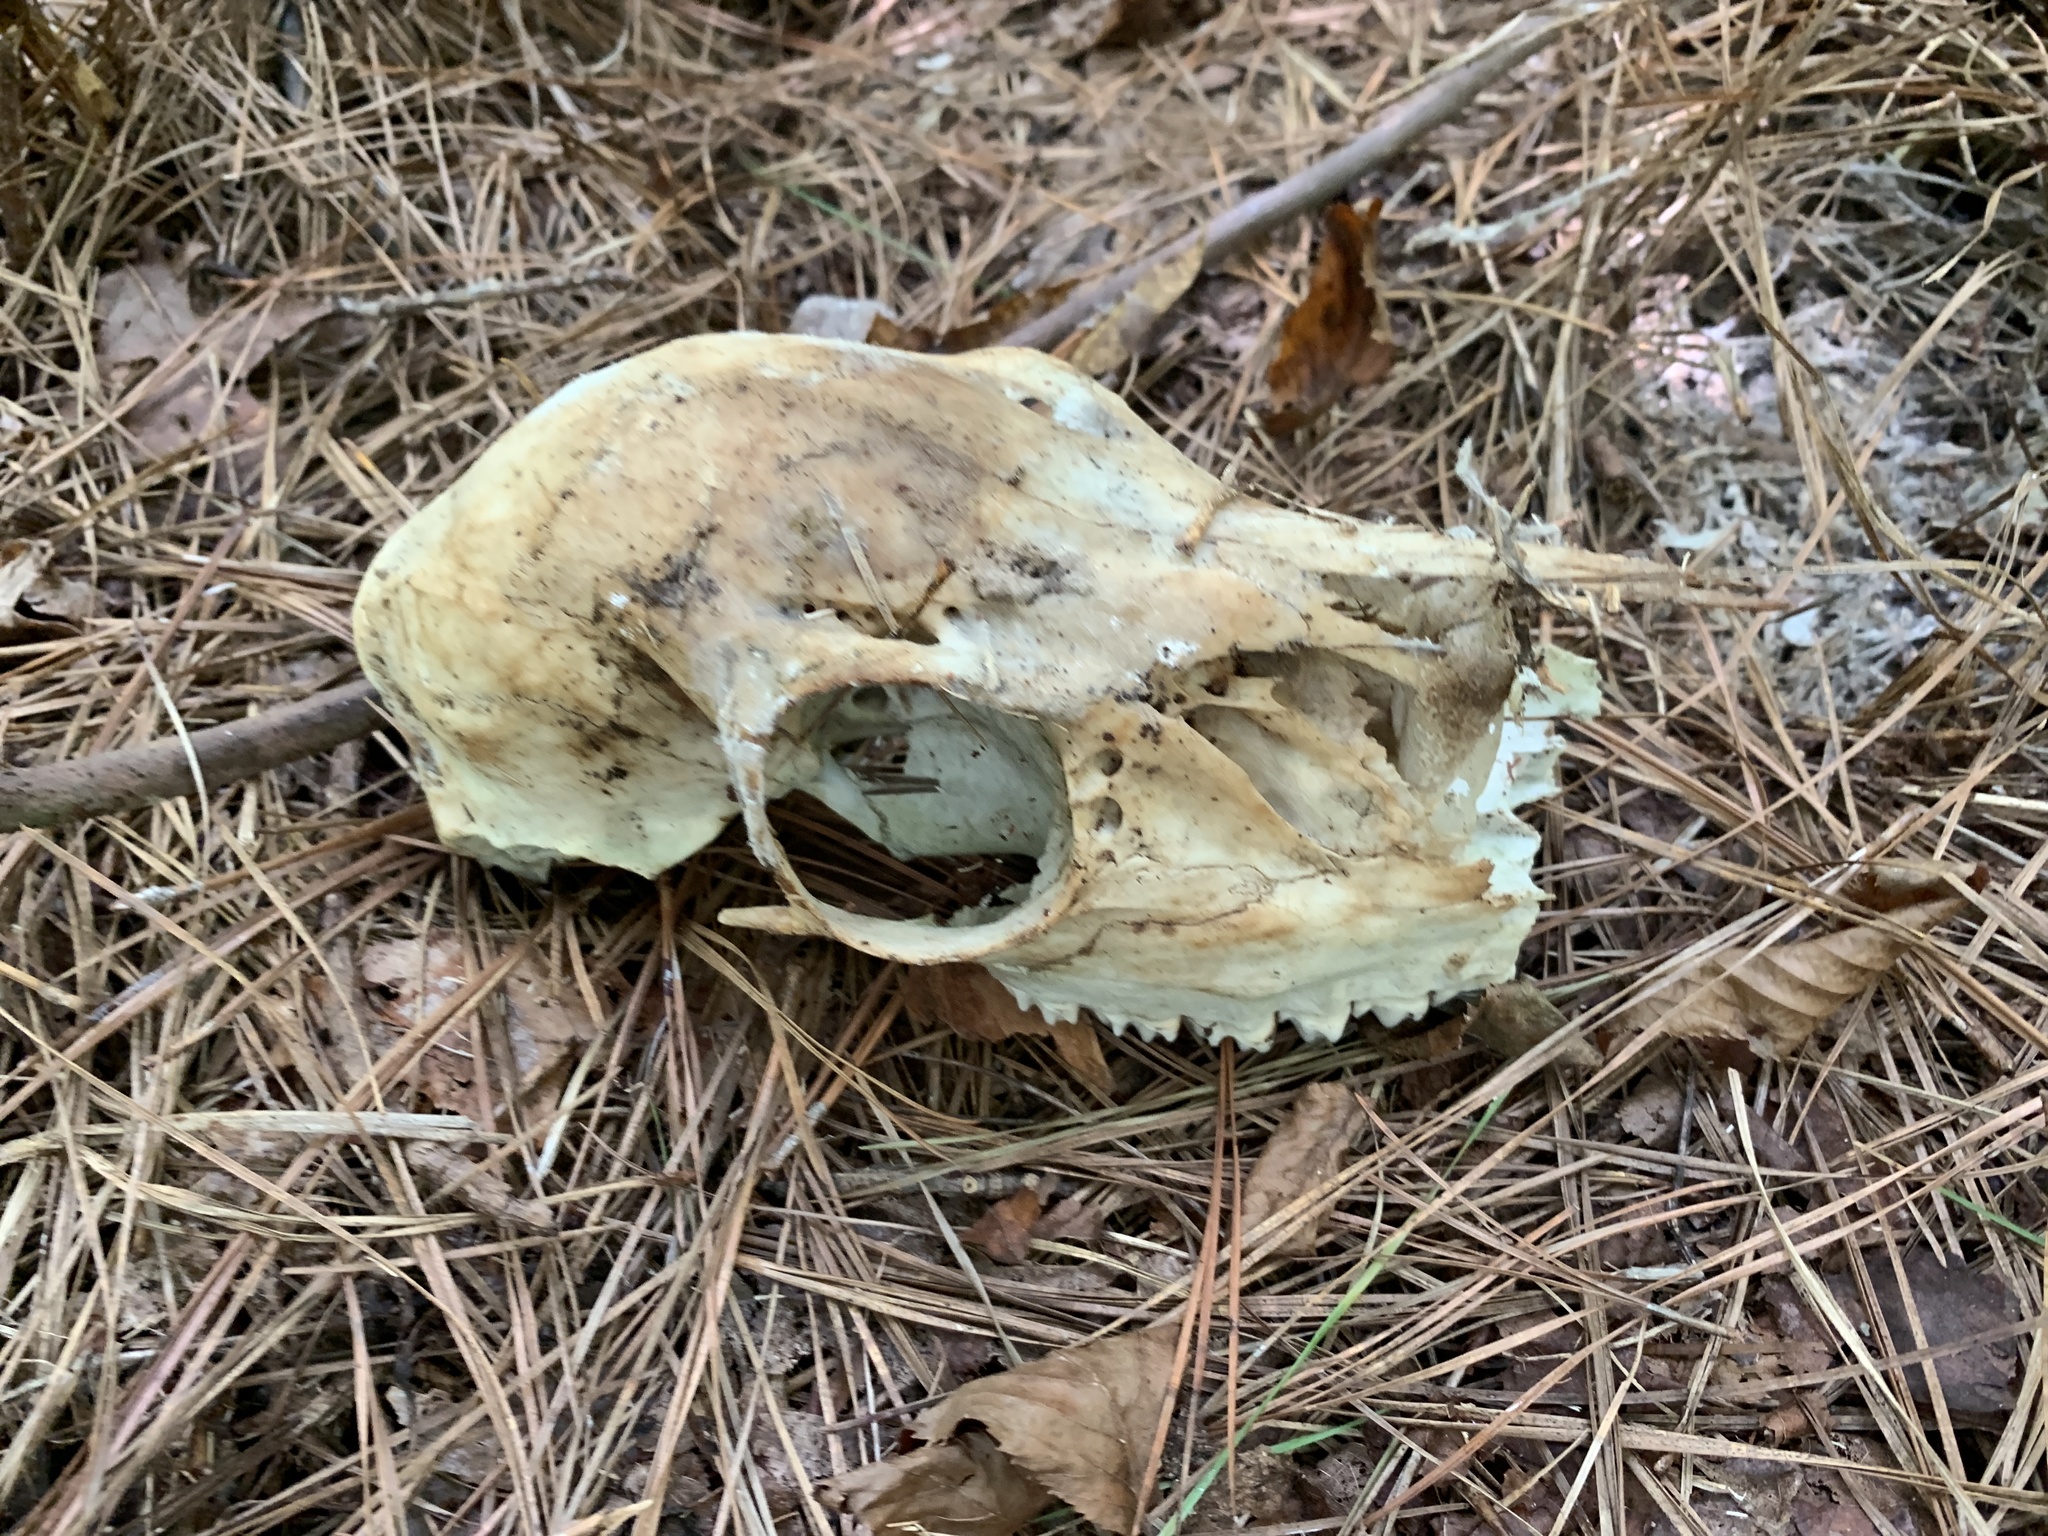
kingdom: Animalia
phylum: Chordata
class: Mammalia
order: Artiodactyla
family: Cervidae
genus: Odocoileus
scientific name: Odocoileus virginianus
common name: White-tailed deer
